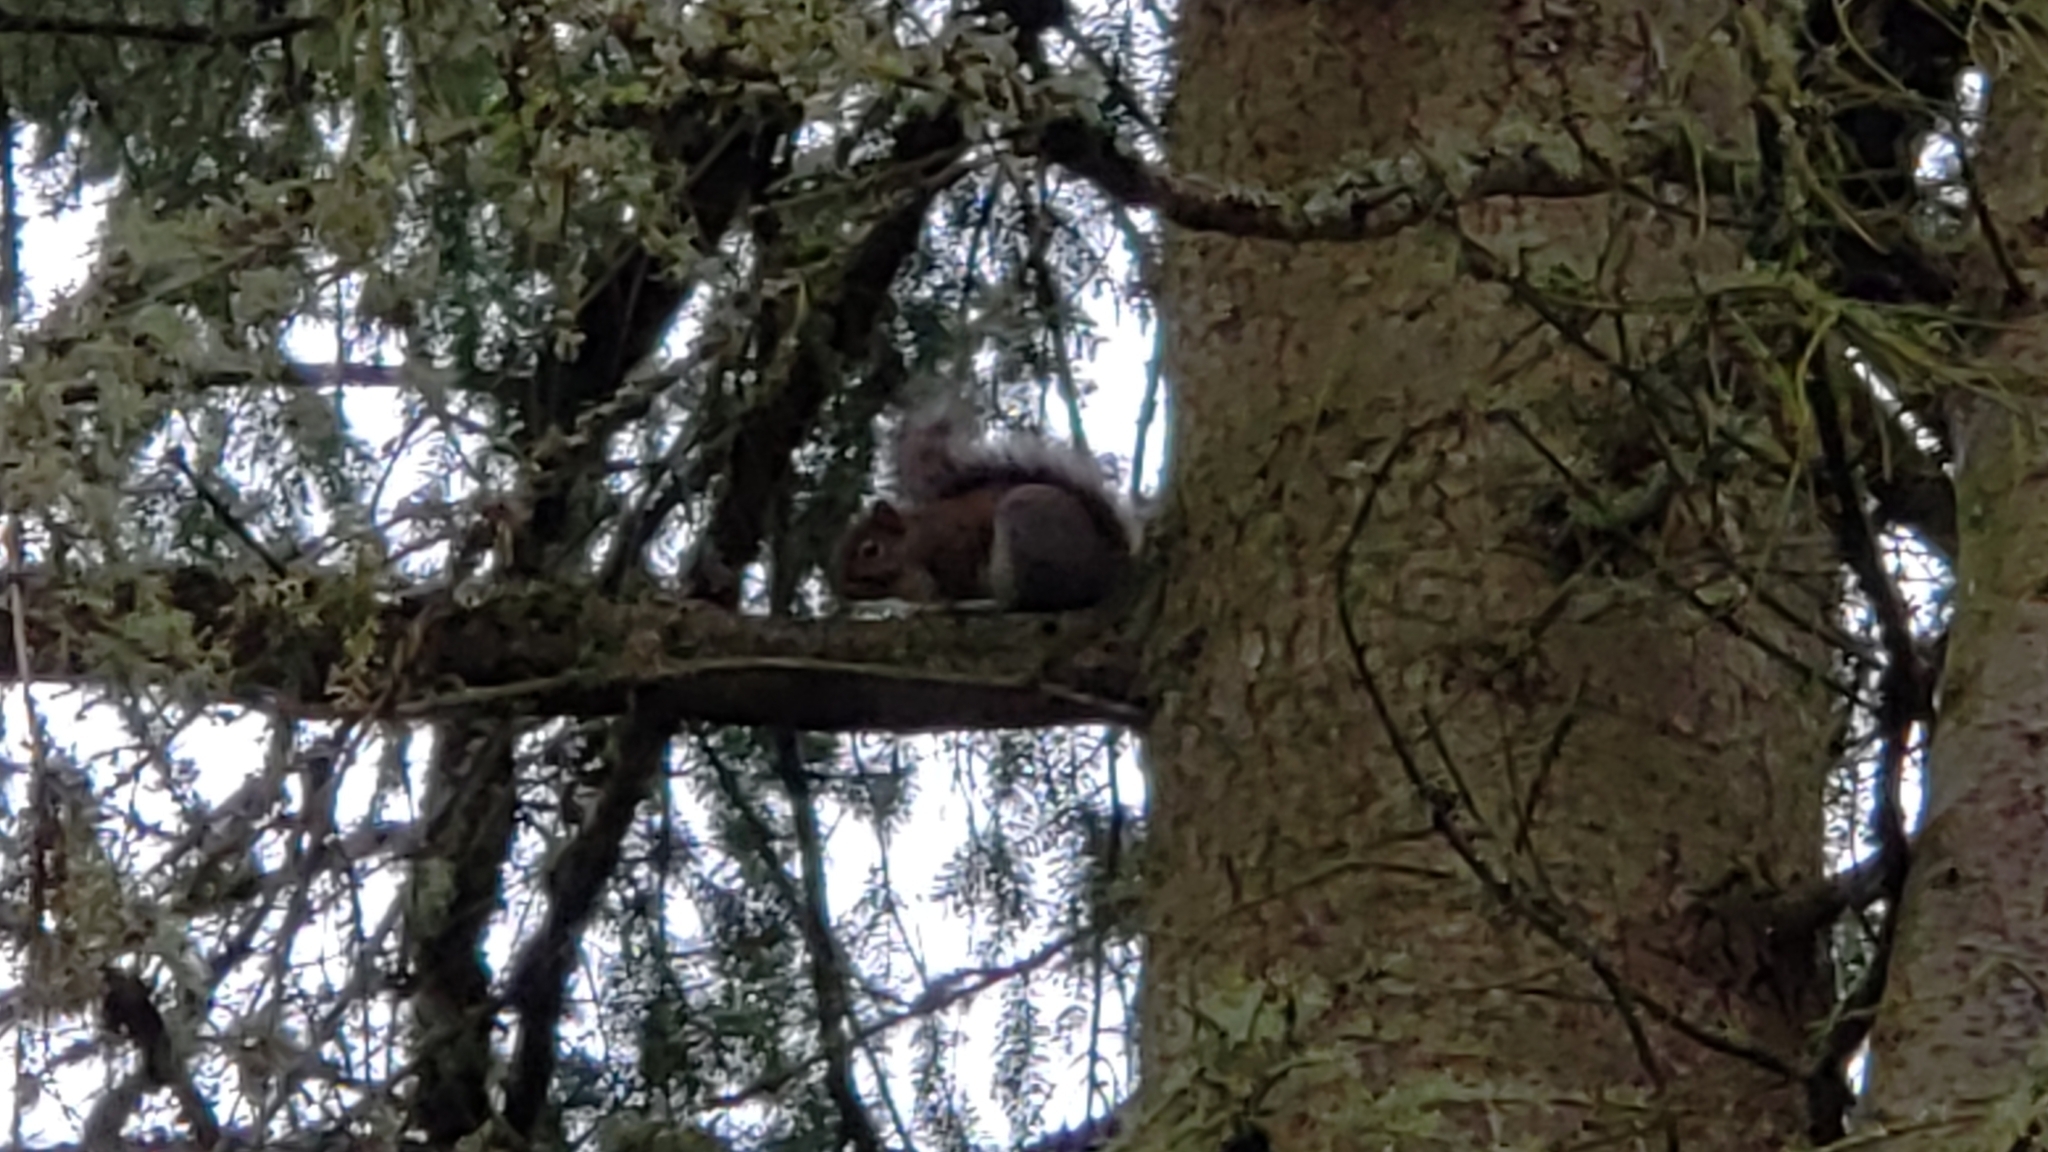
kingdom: Animalia
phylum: Chordata
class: Mammalia
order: Rodentia
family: Sciuridae
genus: Sciurus
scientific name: Sciurus carolinensis
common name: Eastern gray squirrel
